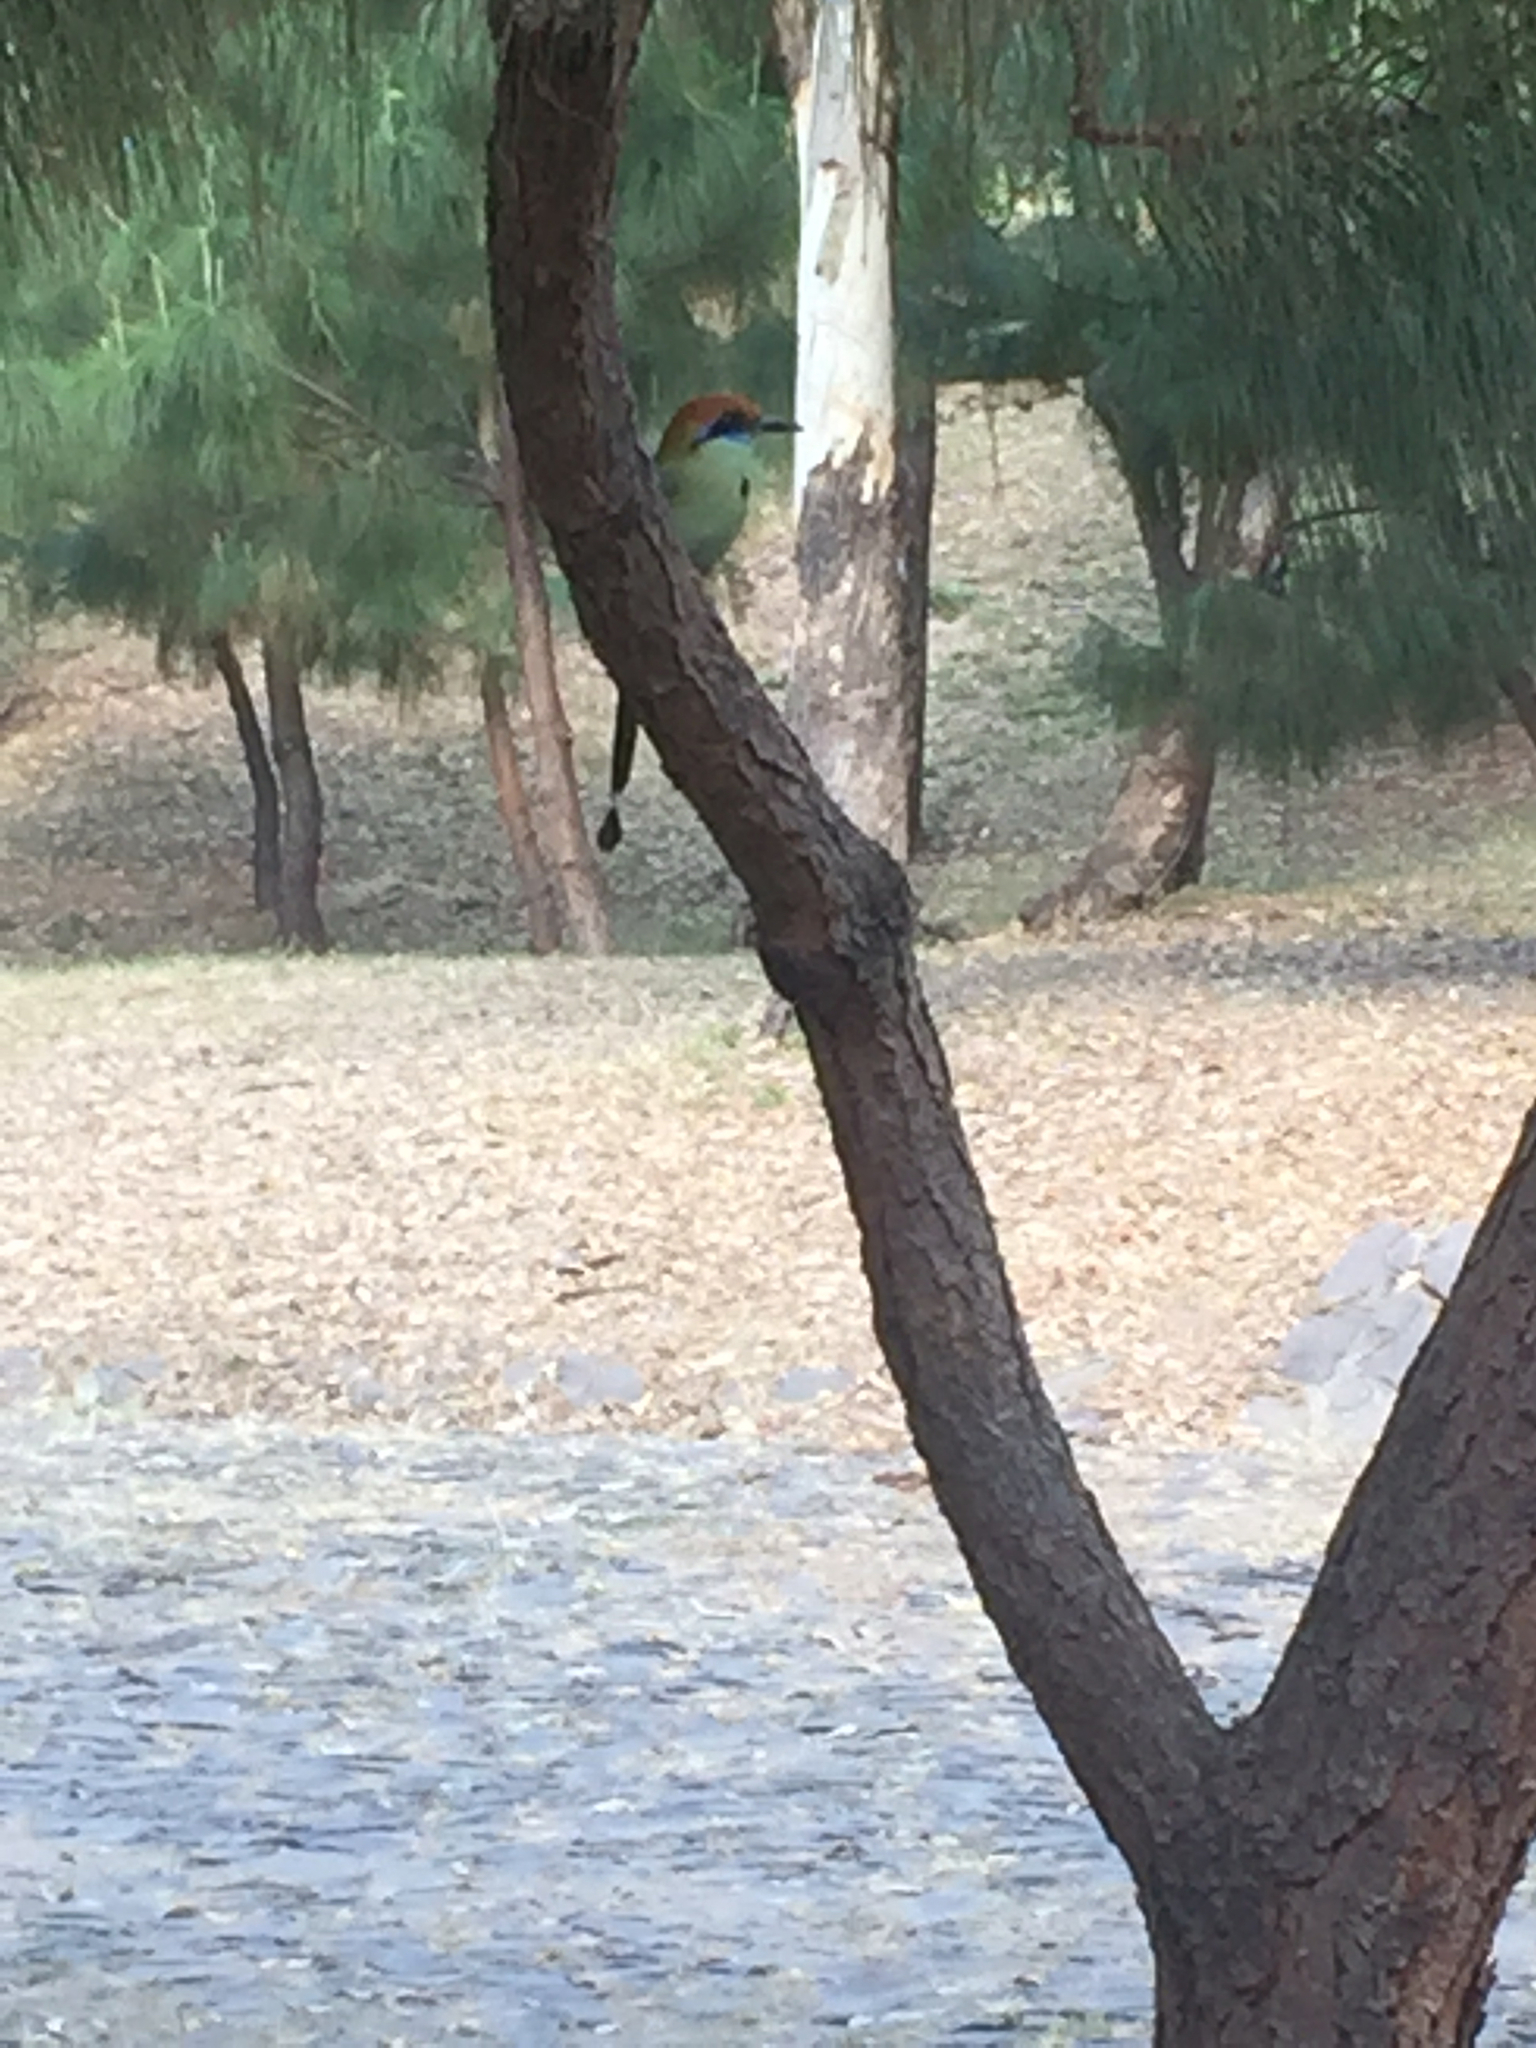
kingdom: Animalia
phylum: Chordata
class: Aves
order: Coraciiformes
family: Momotidae
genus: Momotus
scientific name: Momotus mexicanus
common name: Russet-crowned motmot
